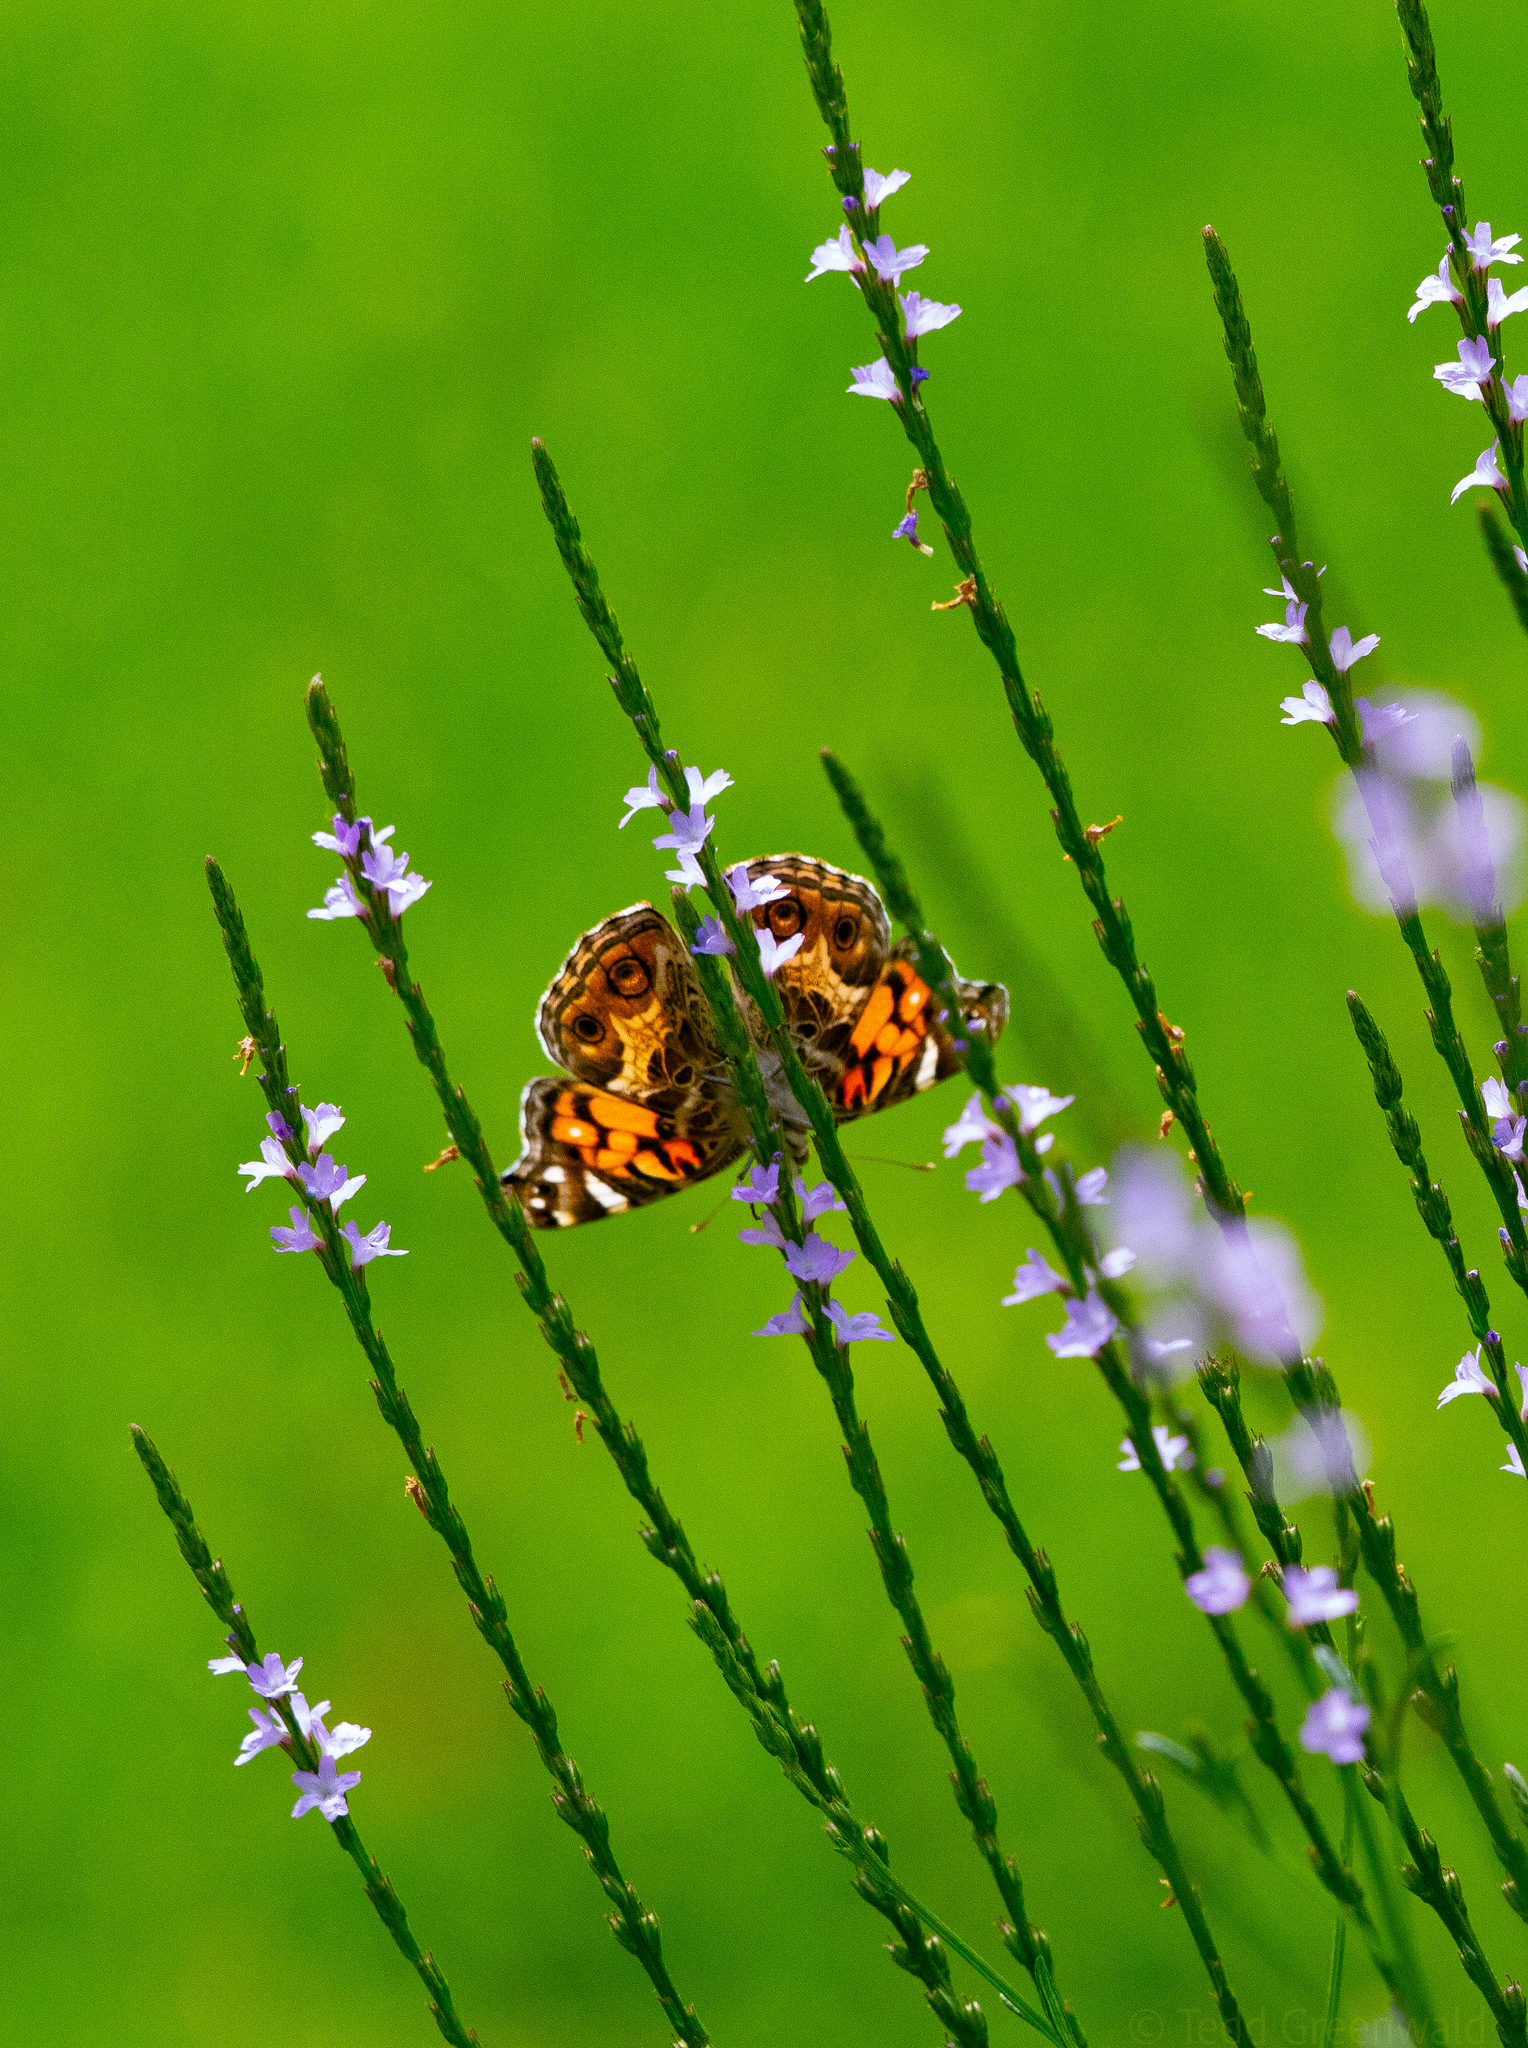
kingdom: Animalia
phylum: Arthropoda
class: Insecta
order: Lepidoptera
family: Nymphalidae
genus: Vanessa
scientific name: Vanessa virginiensis
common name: American lady
